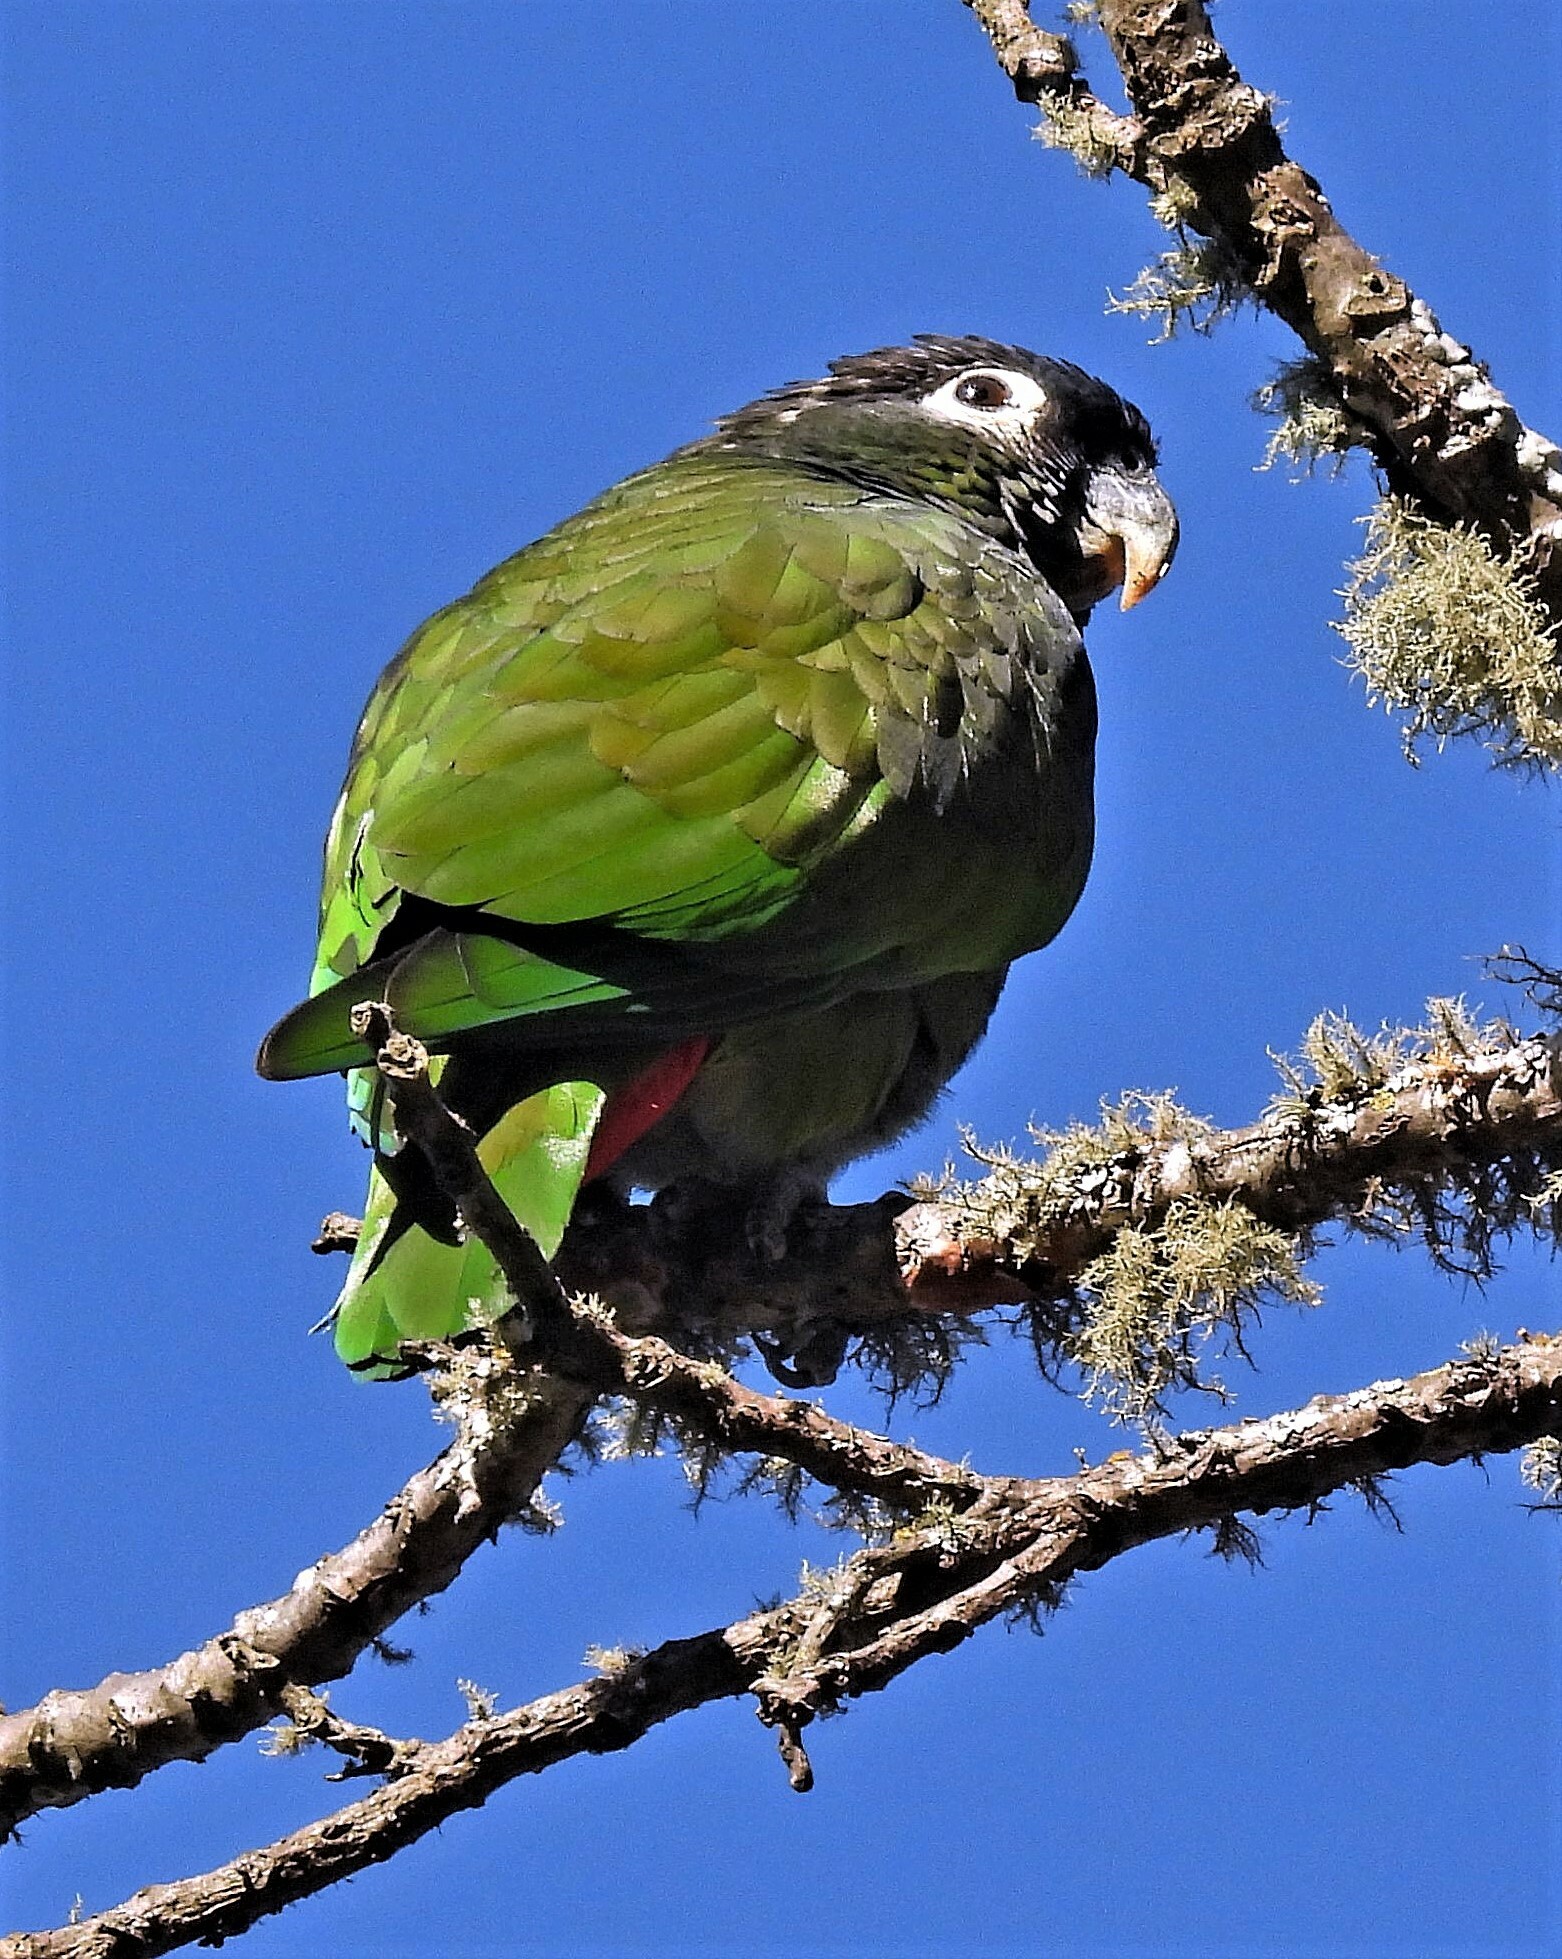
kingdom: Animalia
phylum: Chordata
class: Aves
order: Psittaciformes
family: Psittacidae
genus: Pionus
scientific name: Pionus maximiliani
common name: Scaly-headed parrot
